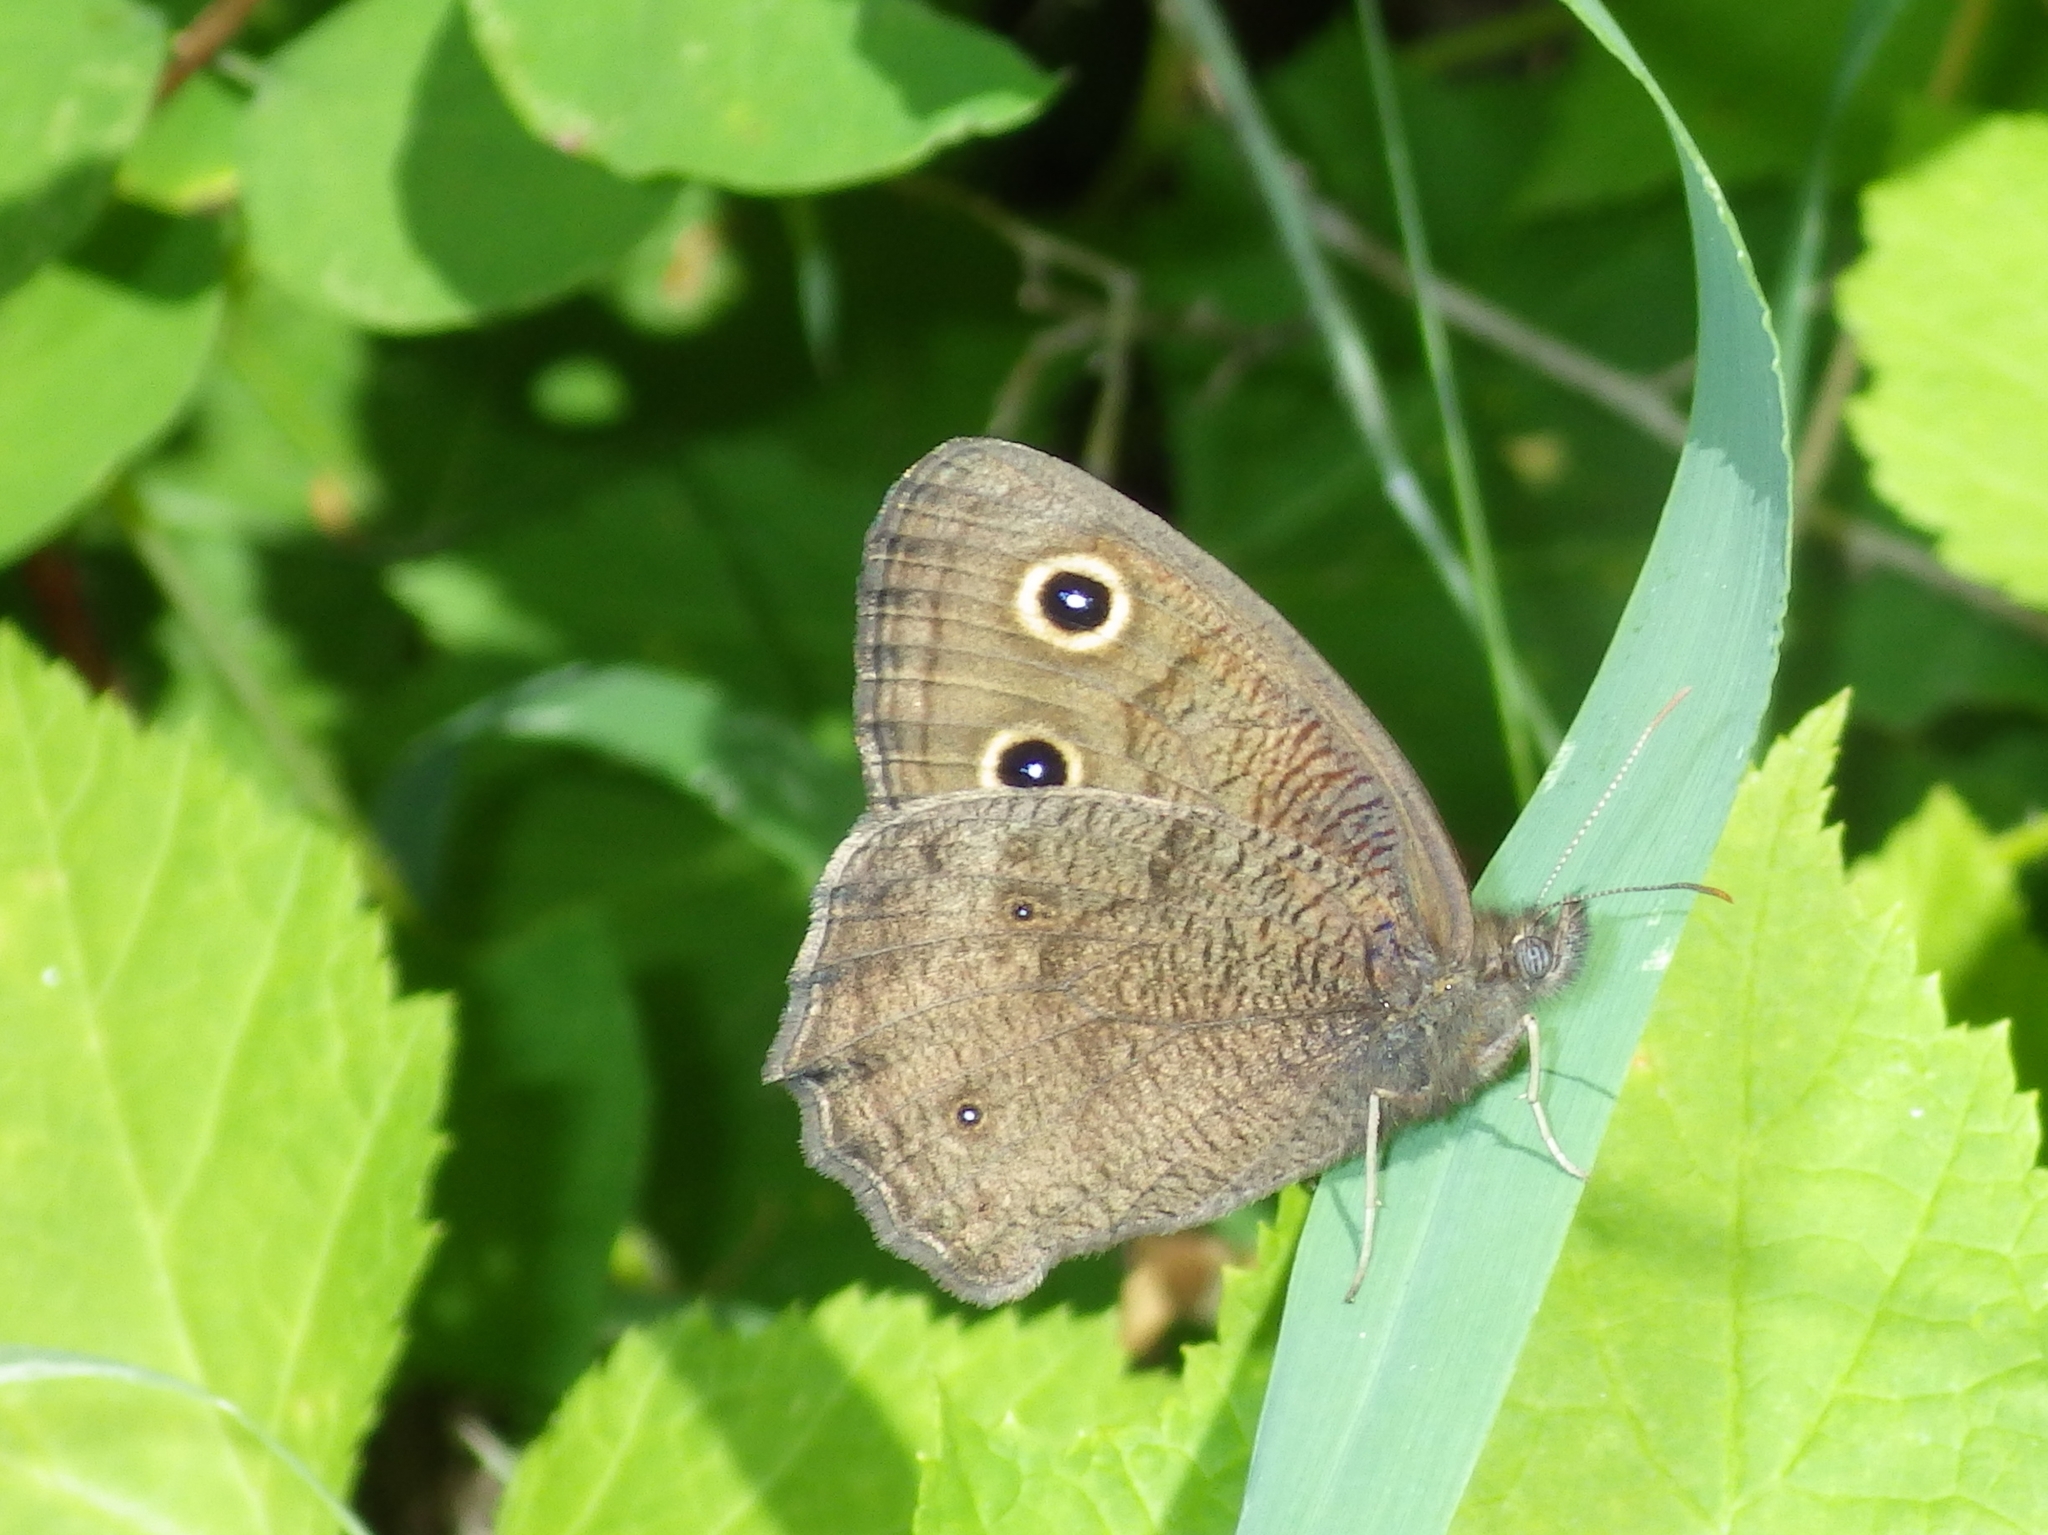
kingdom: Animalia
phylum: Arthropoda
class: Insecta
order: Lepidoptera
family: Nymphalidae
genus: Cercyonis
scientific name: Cercyonis pegala
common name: Common wood-nymph
